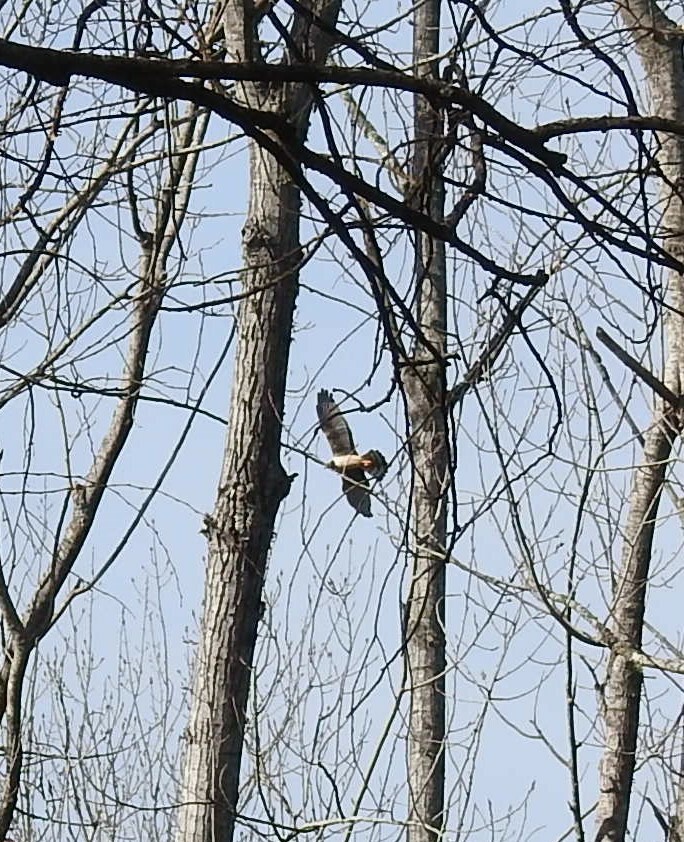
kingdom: Animalia
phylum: Chordata
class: Aves
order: Accipitriformes
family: Accipitridae
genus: Circus
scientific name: Circus buffoni
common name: Long-winged harrier
